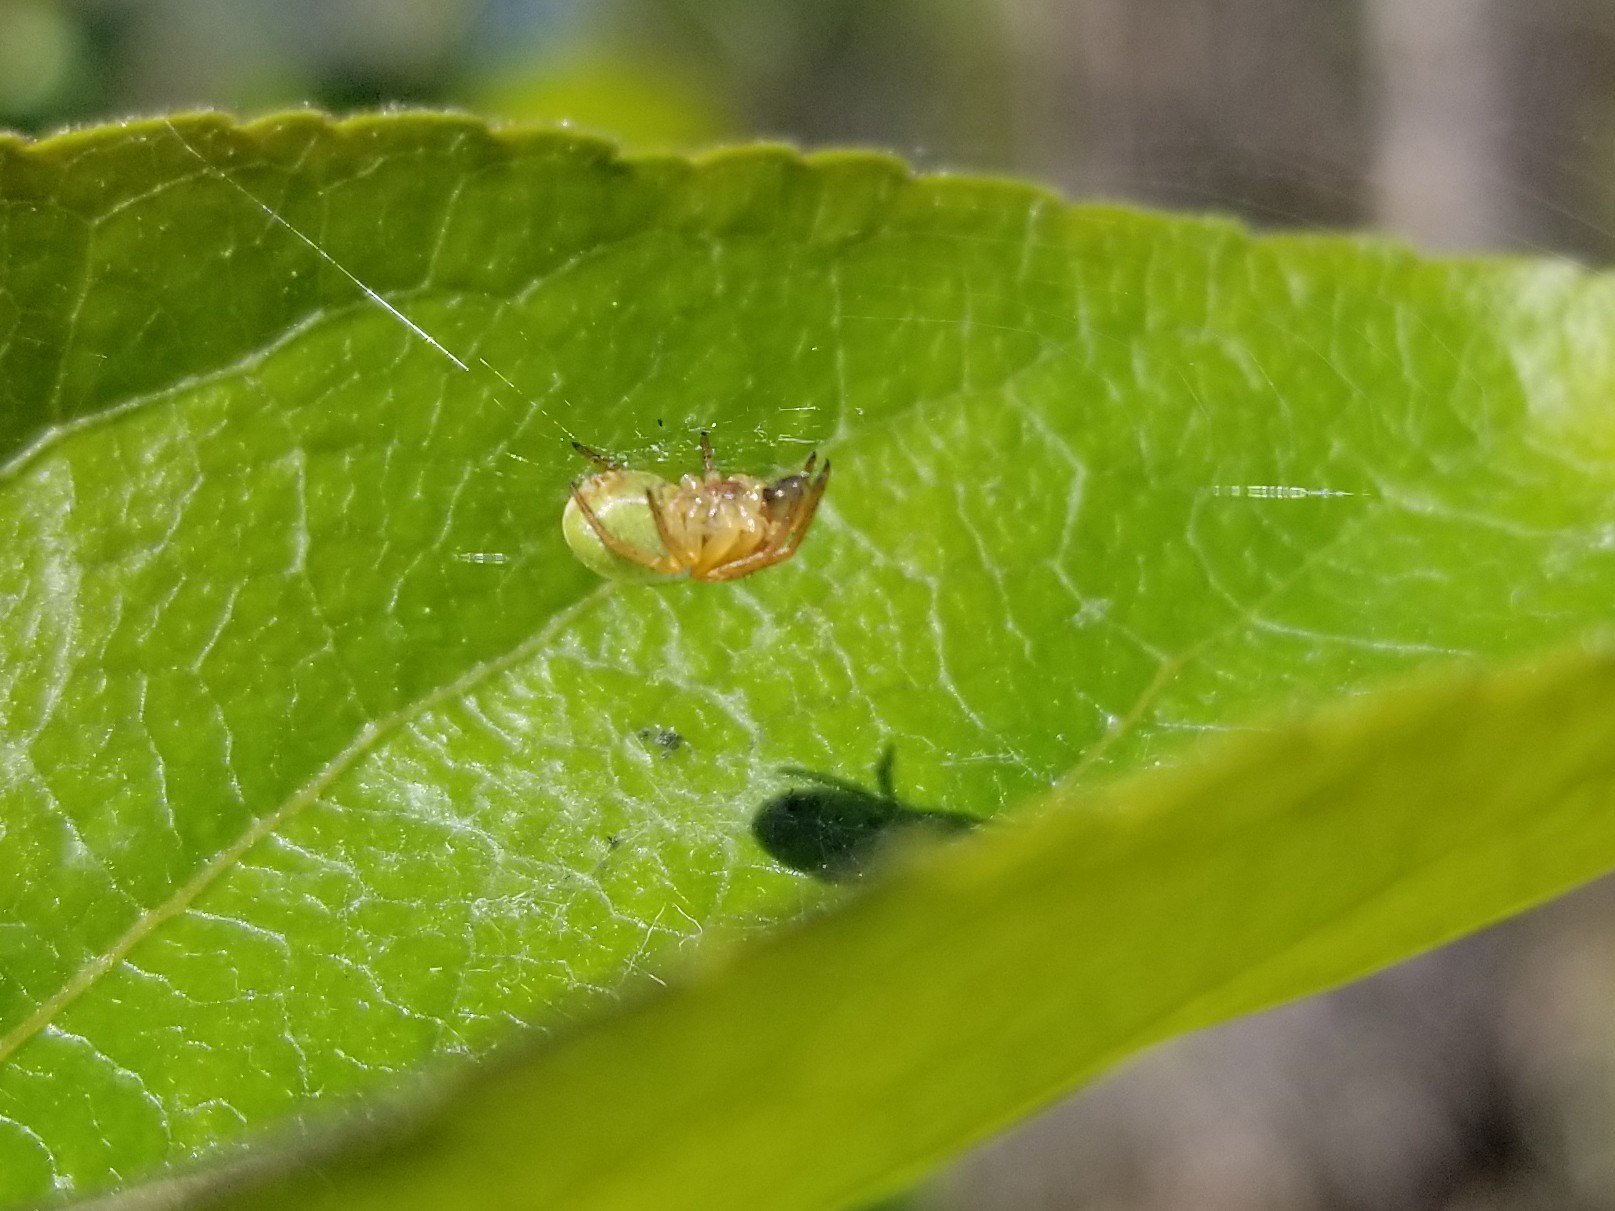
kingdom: Animalia
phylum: Arthropoda
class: Arachnida
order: Araneae
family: Araneidae
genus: Araniella
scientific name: Araniella proxima
